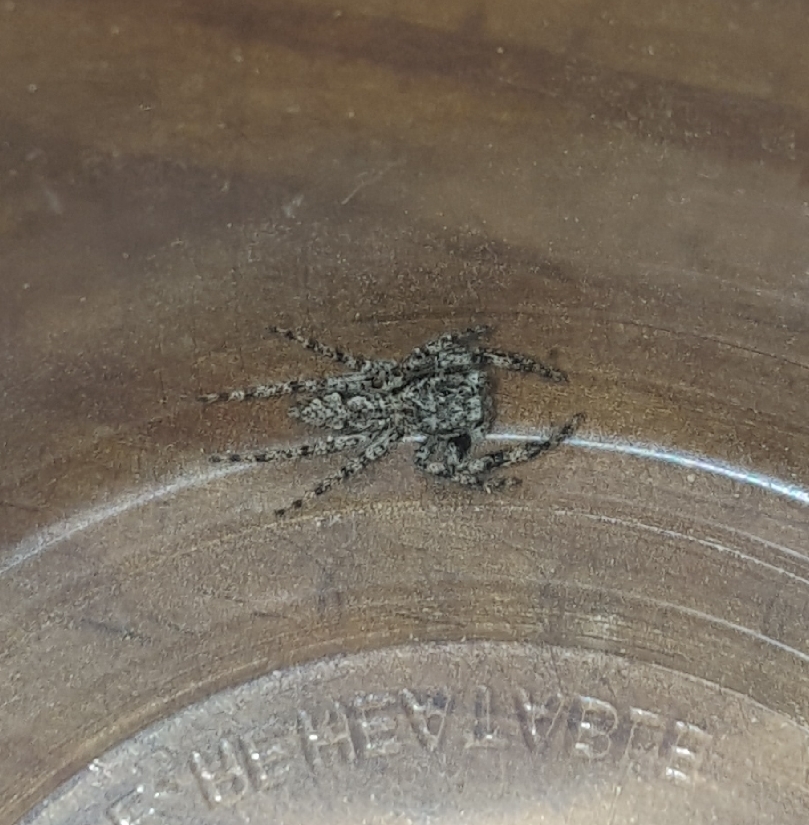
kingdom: Animalia
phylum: Arthropoda
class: Arachnida
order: Araneae
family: Salticidae
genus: Platycryptus
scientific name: Platycryptus undatus
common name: Tan jumping spider
